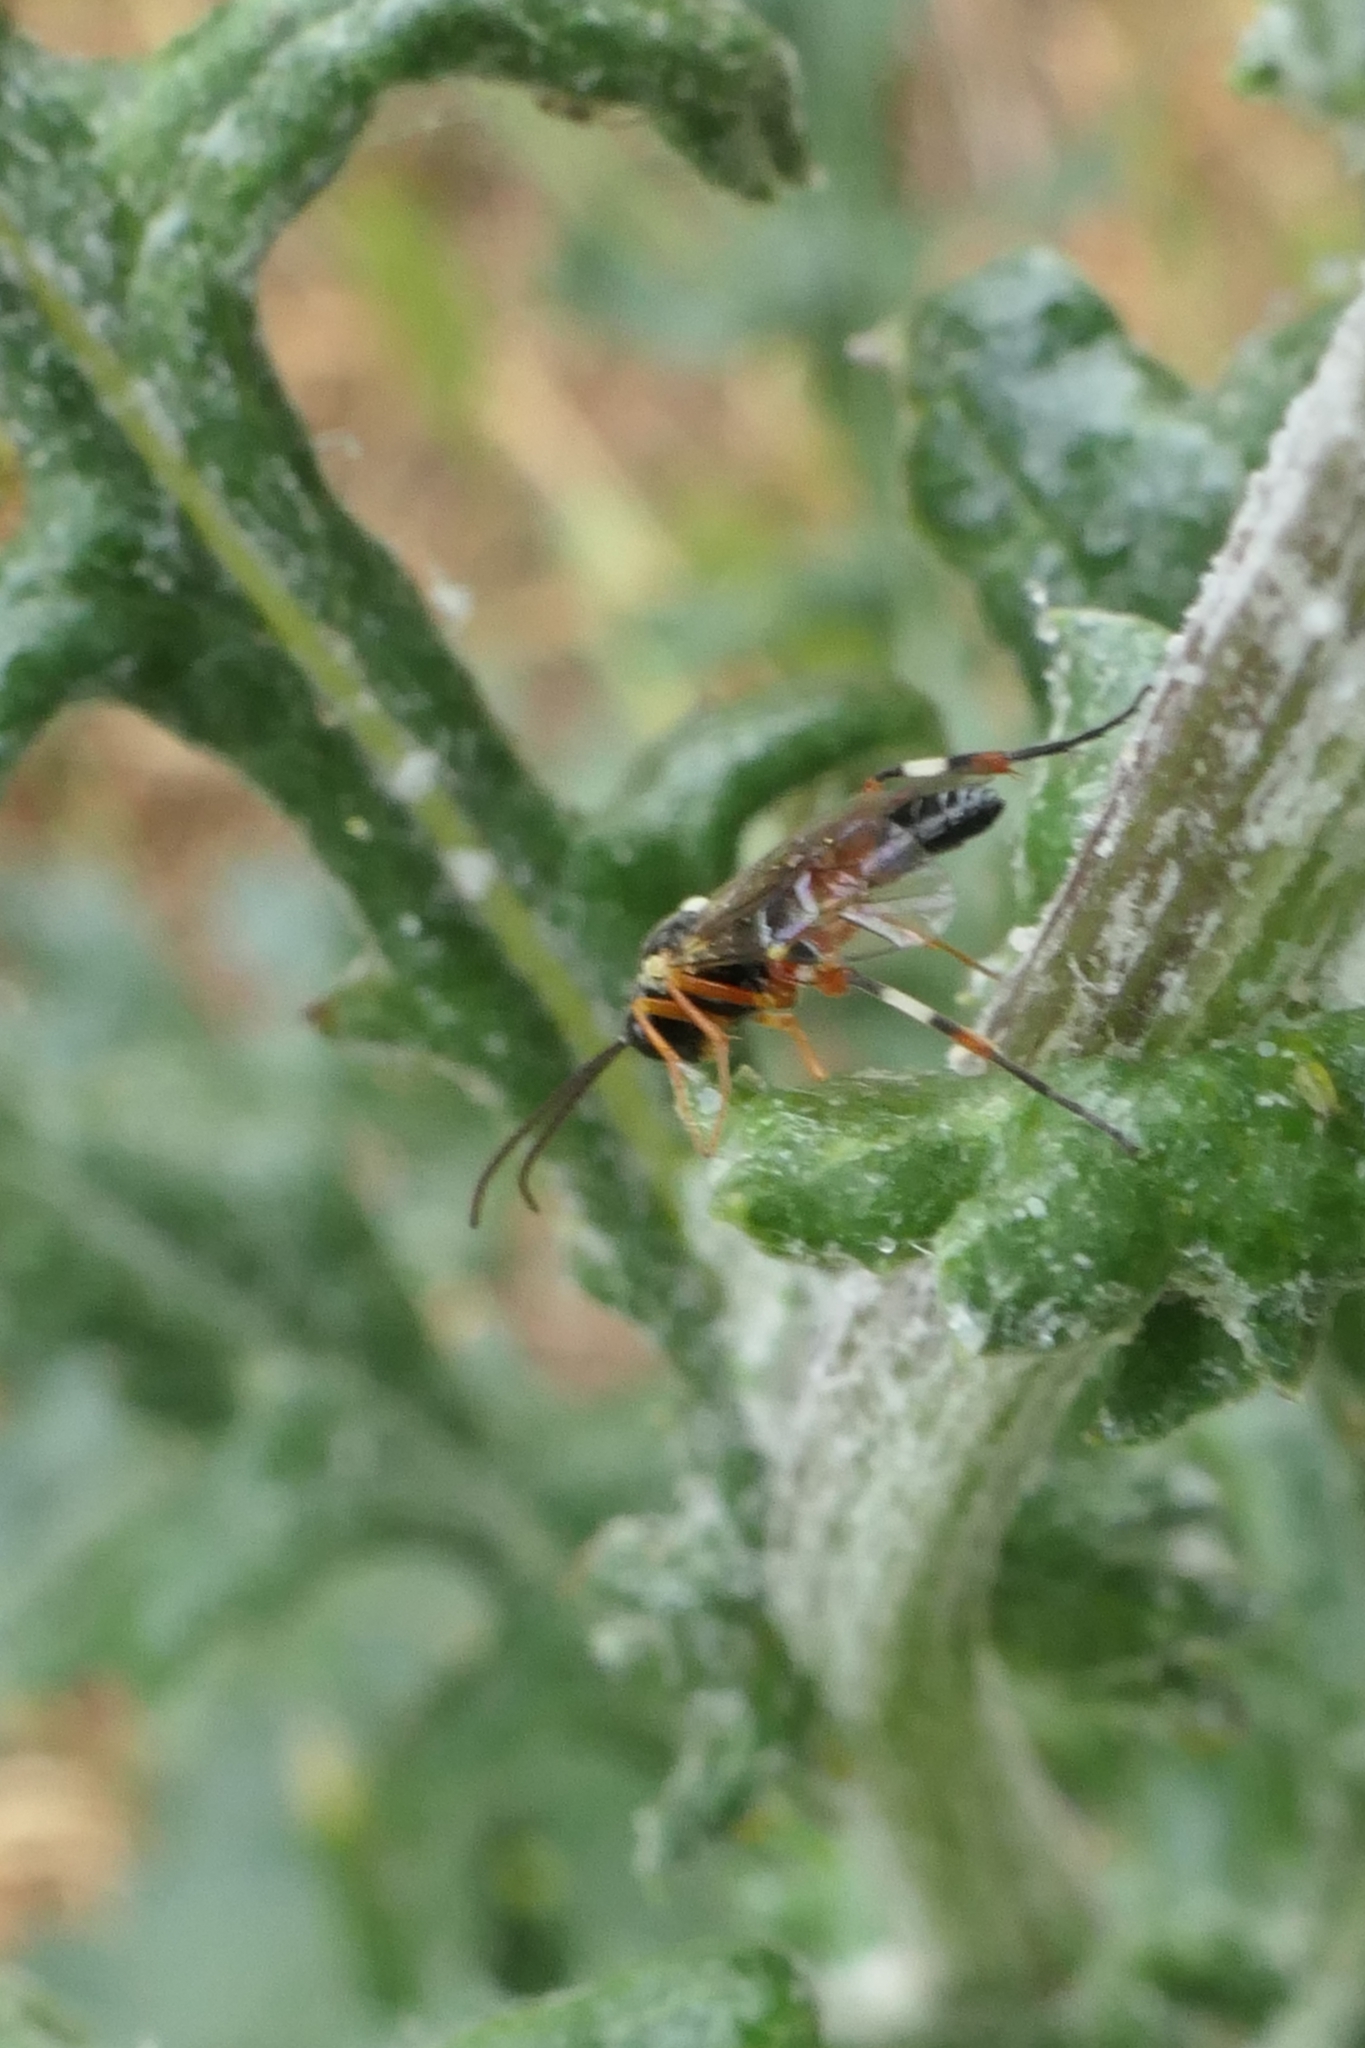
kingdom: Animalia
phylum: Arthropoda
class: Insecta
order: Hymenoptera
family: Ichneumonidae
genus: Diplazon
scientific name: Diplazon laetatorius
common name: Parasitoid wasp
